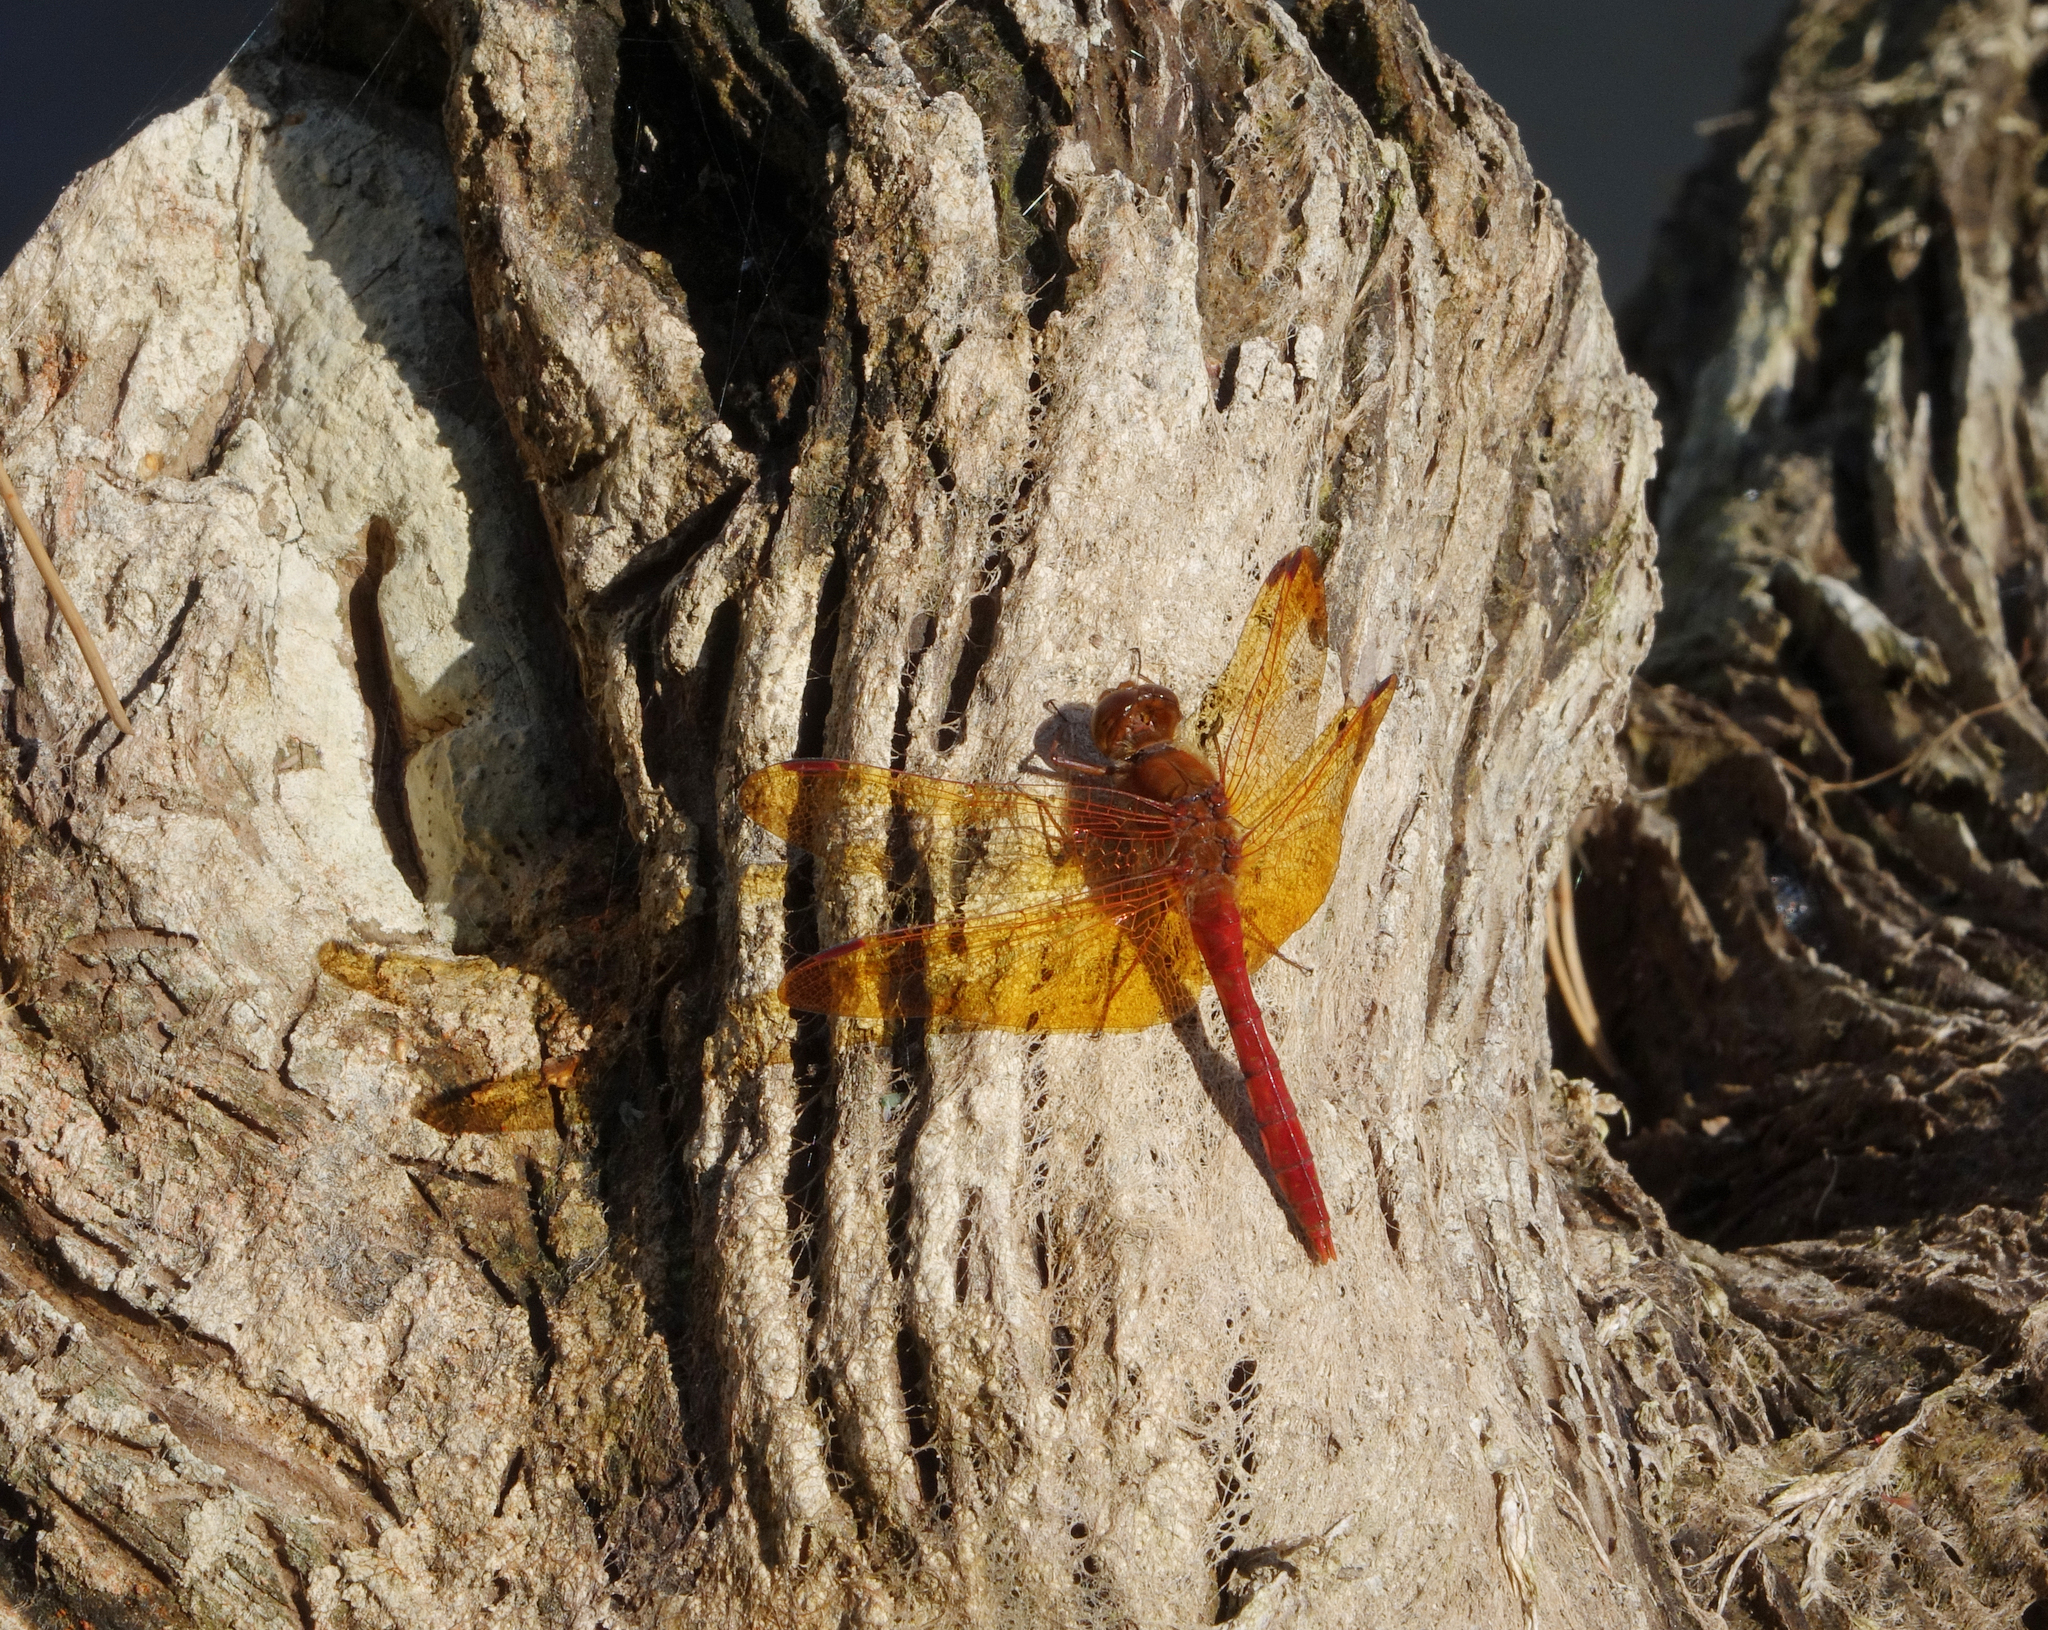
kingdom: Animalia
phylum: Arthropoda
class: Insecta
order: Odonata
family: Libellulidae
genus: Sympetrum
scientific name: Sympetrum croceolum
